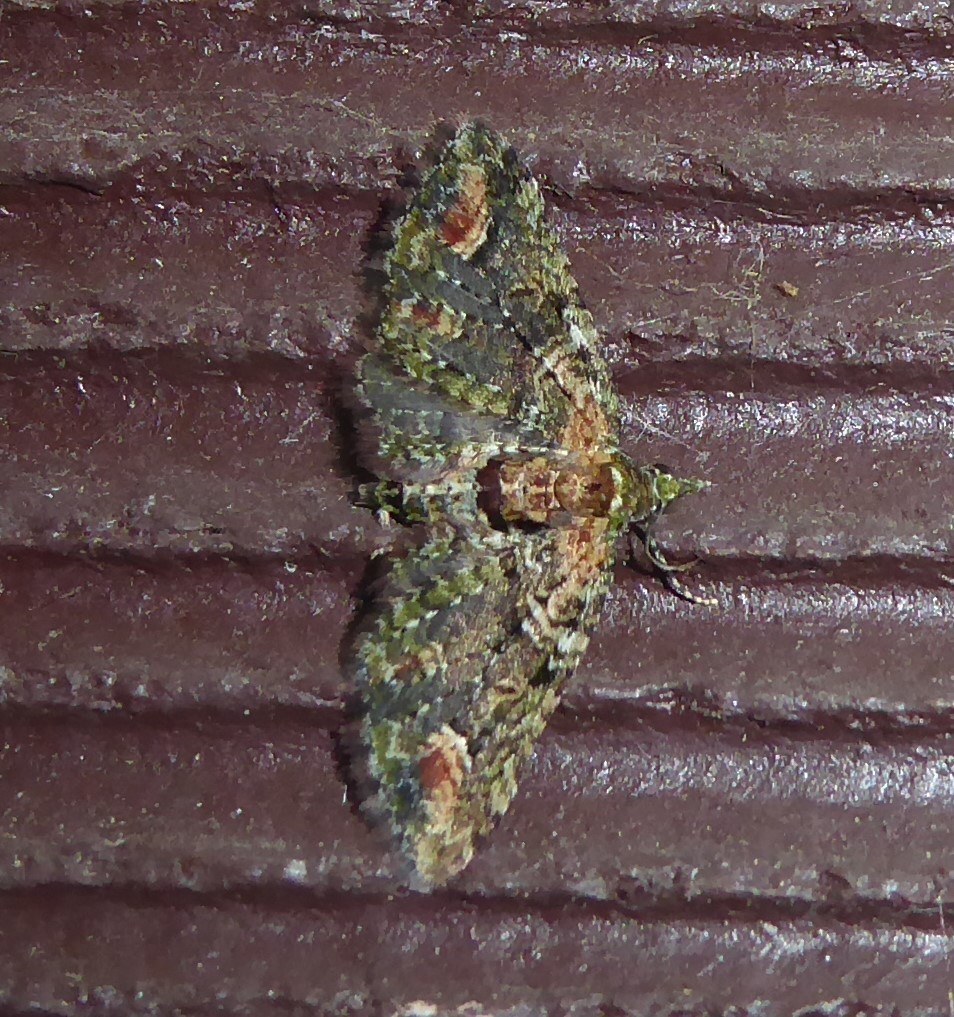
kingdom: Animalia
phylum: Arthropoda
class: Insecta
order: Lepidoptera
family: Geometridae
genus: Idaea
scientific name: Idaea mutanda
